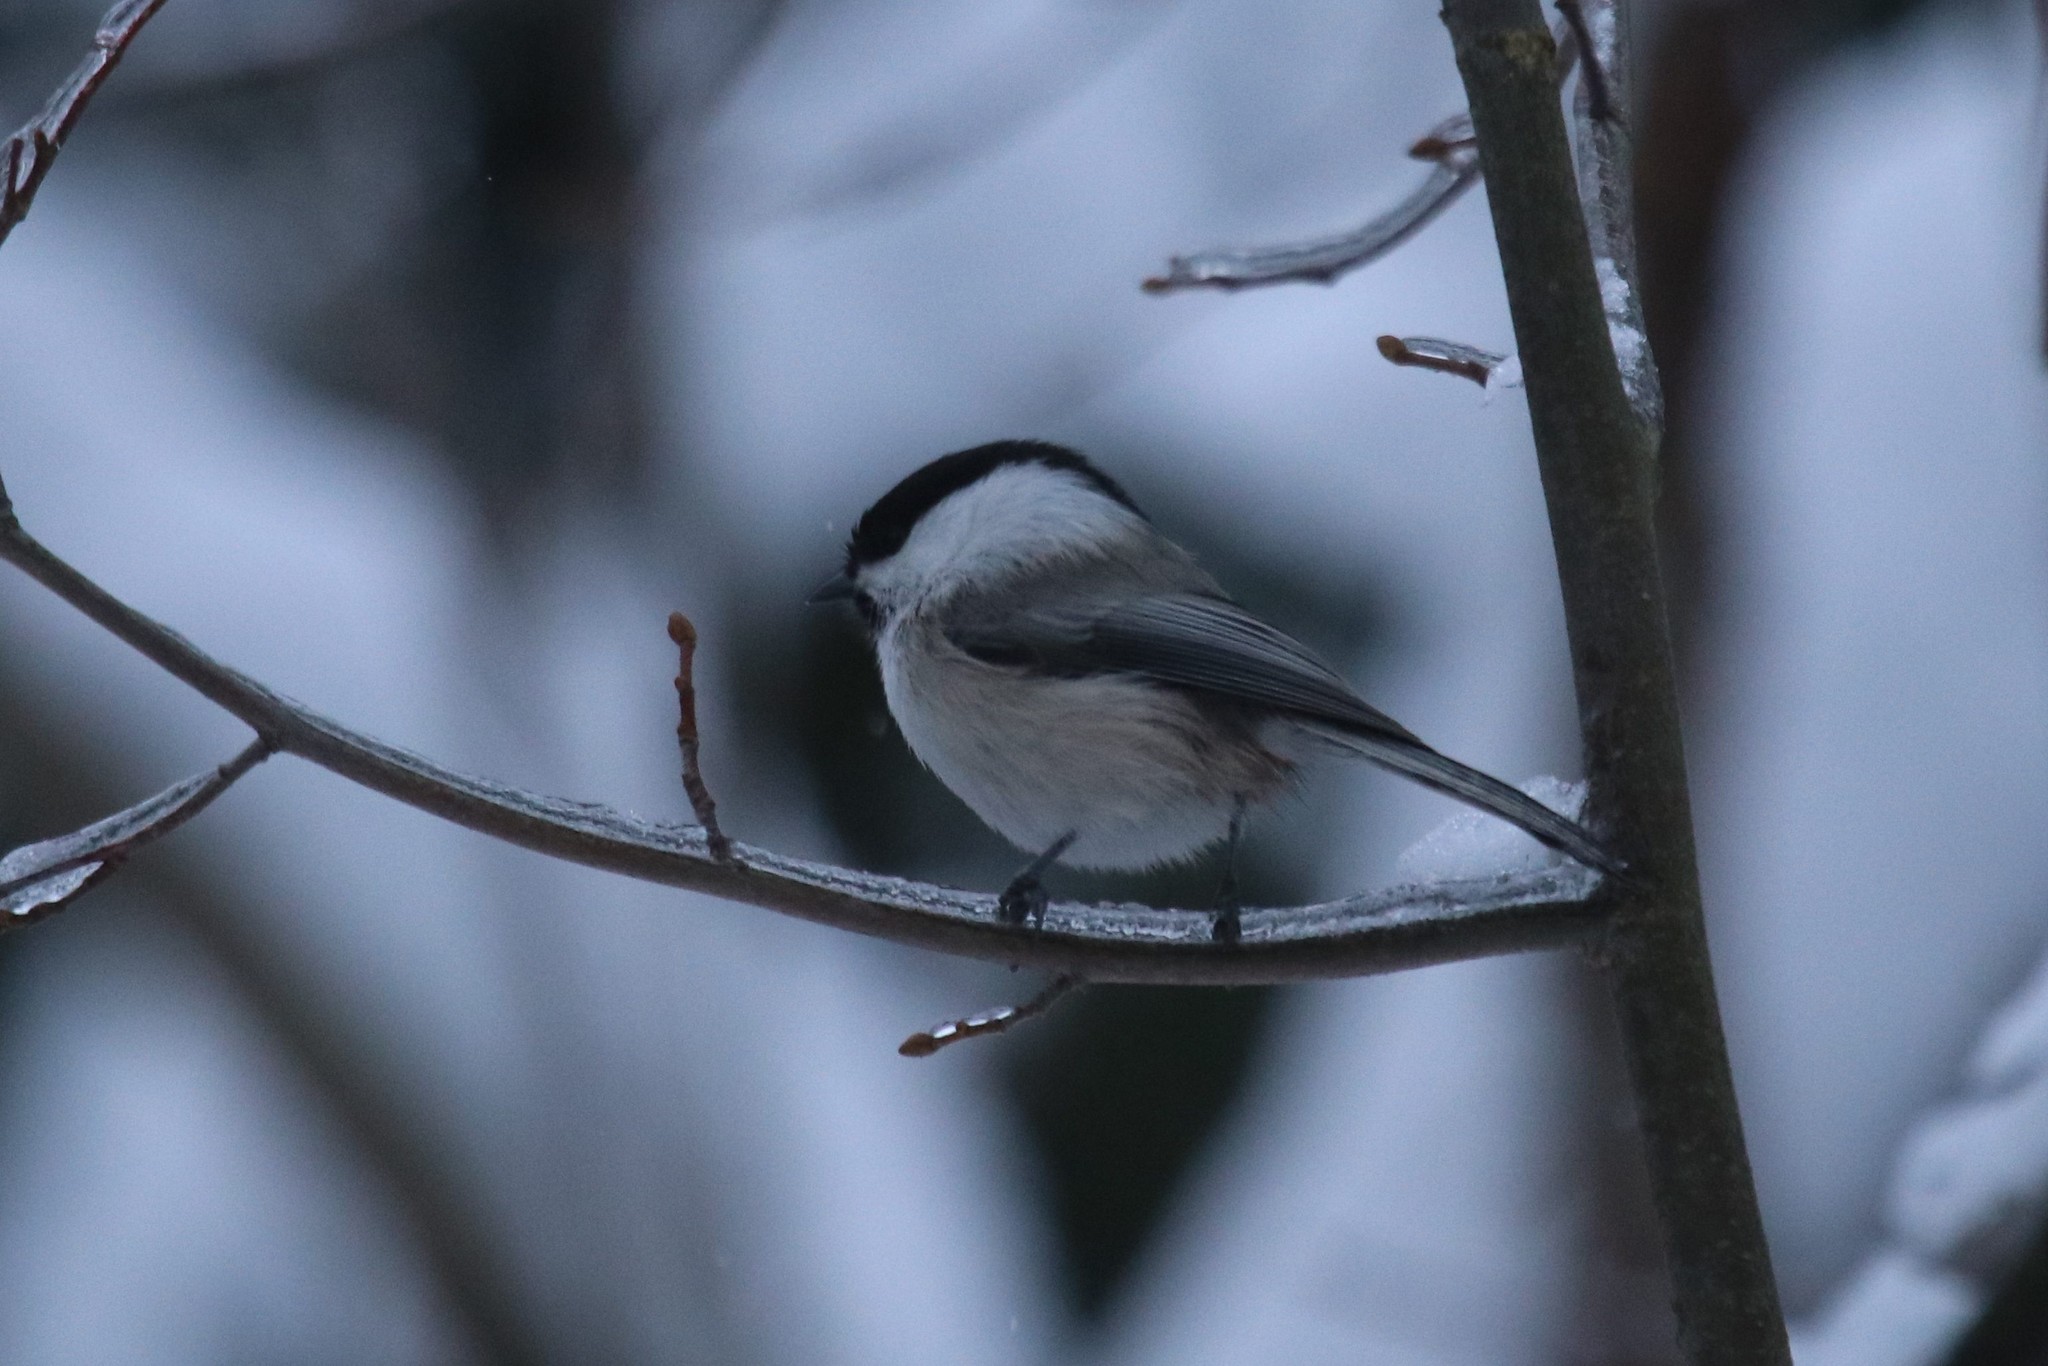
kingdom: Animalia
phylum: Chordata
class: Aves
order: Passeriformes
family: Paridae
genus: Poecile
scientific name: Poecile montanus
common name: Willow tit
